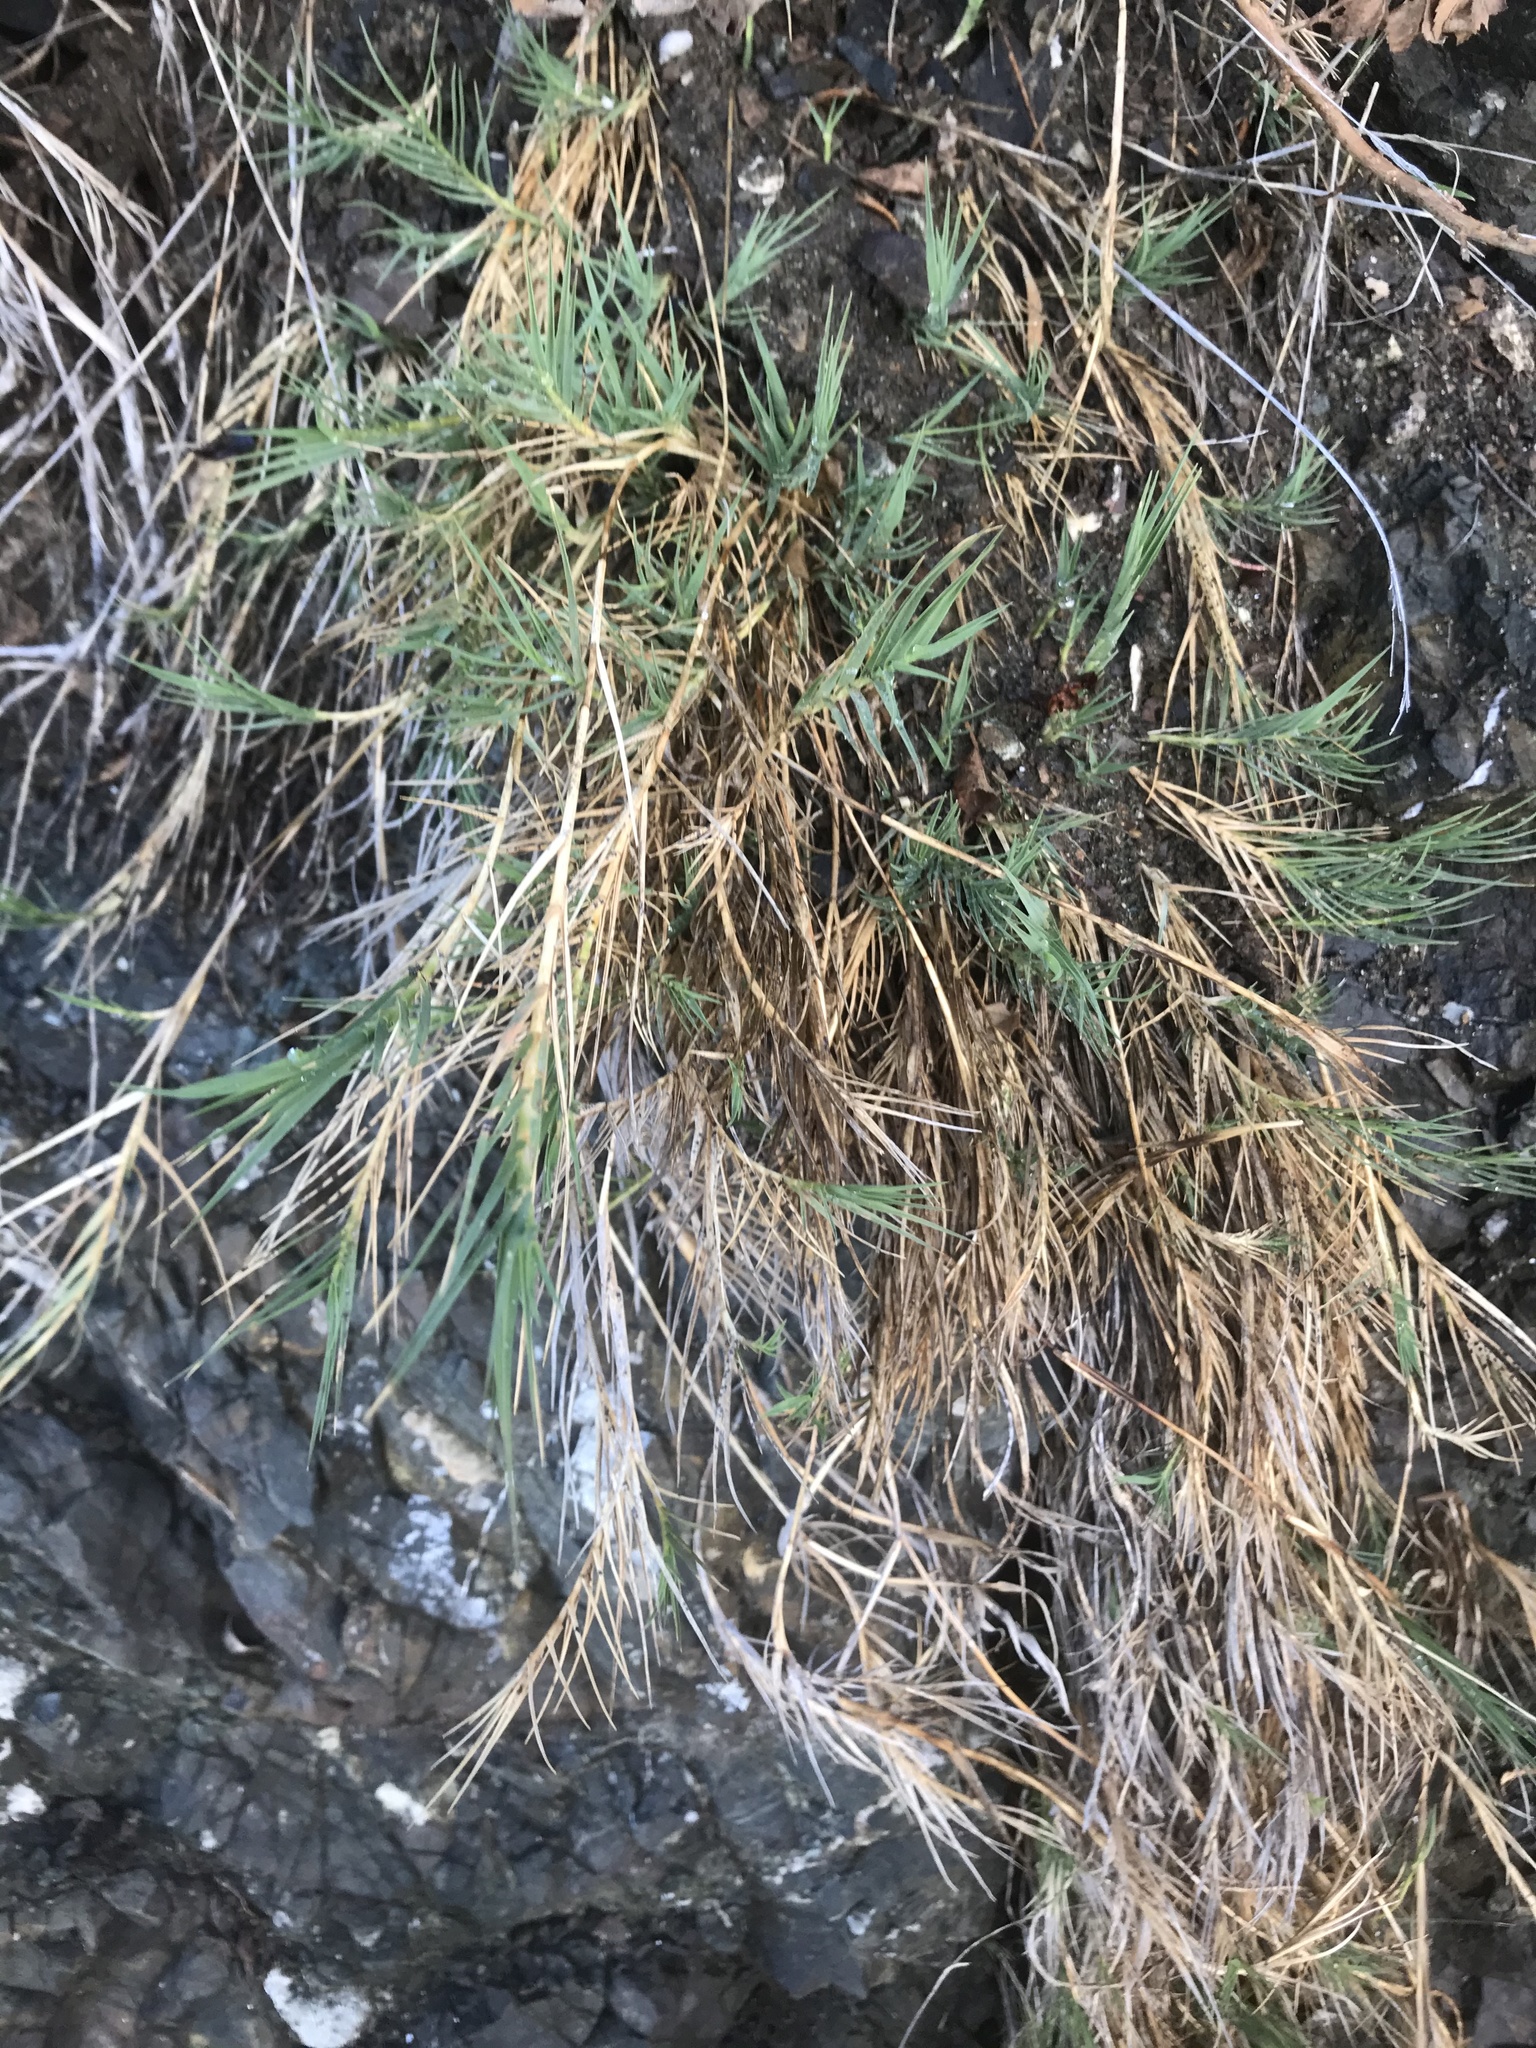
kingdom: Plantae
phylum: Tracheophyta
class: Liliopsida
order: Poales
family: Poaceae
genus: Distichlis
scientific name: Distichlis spicata
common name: Saltgrass
